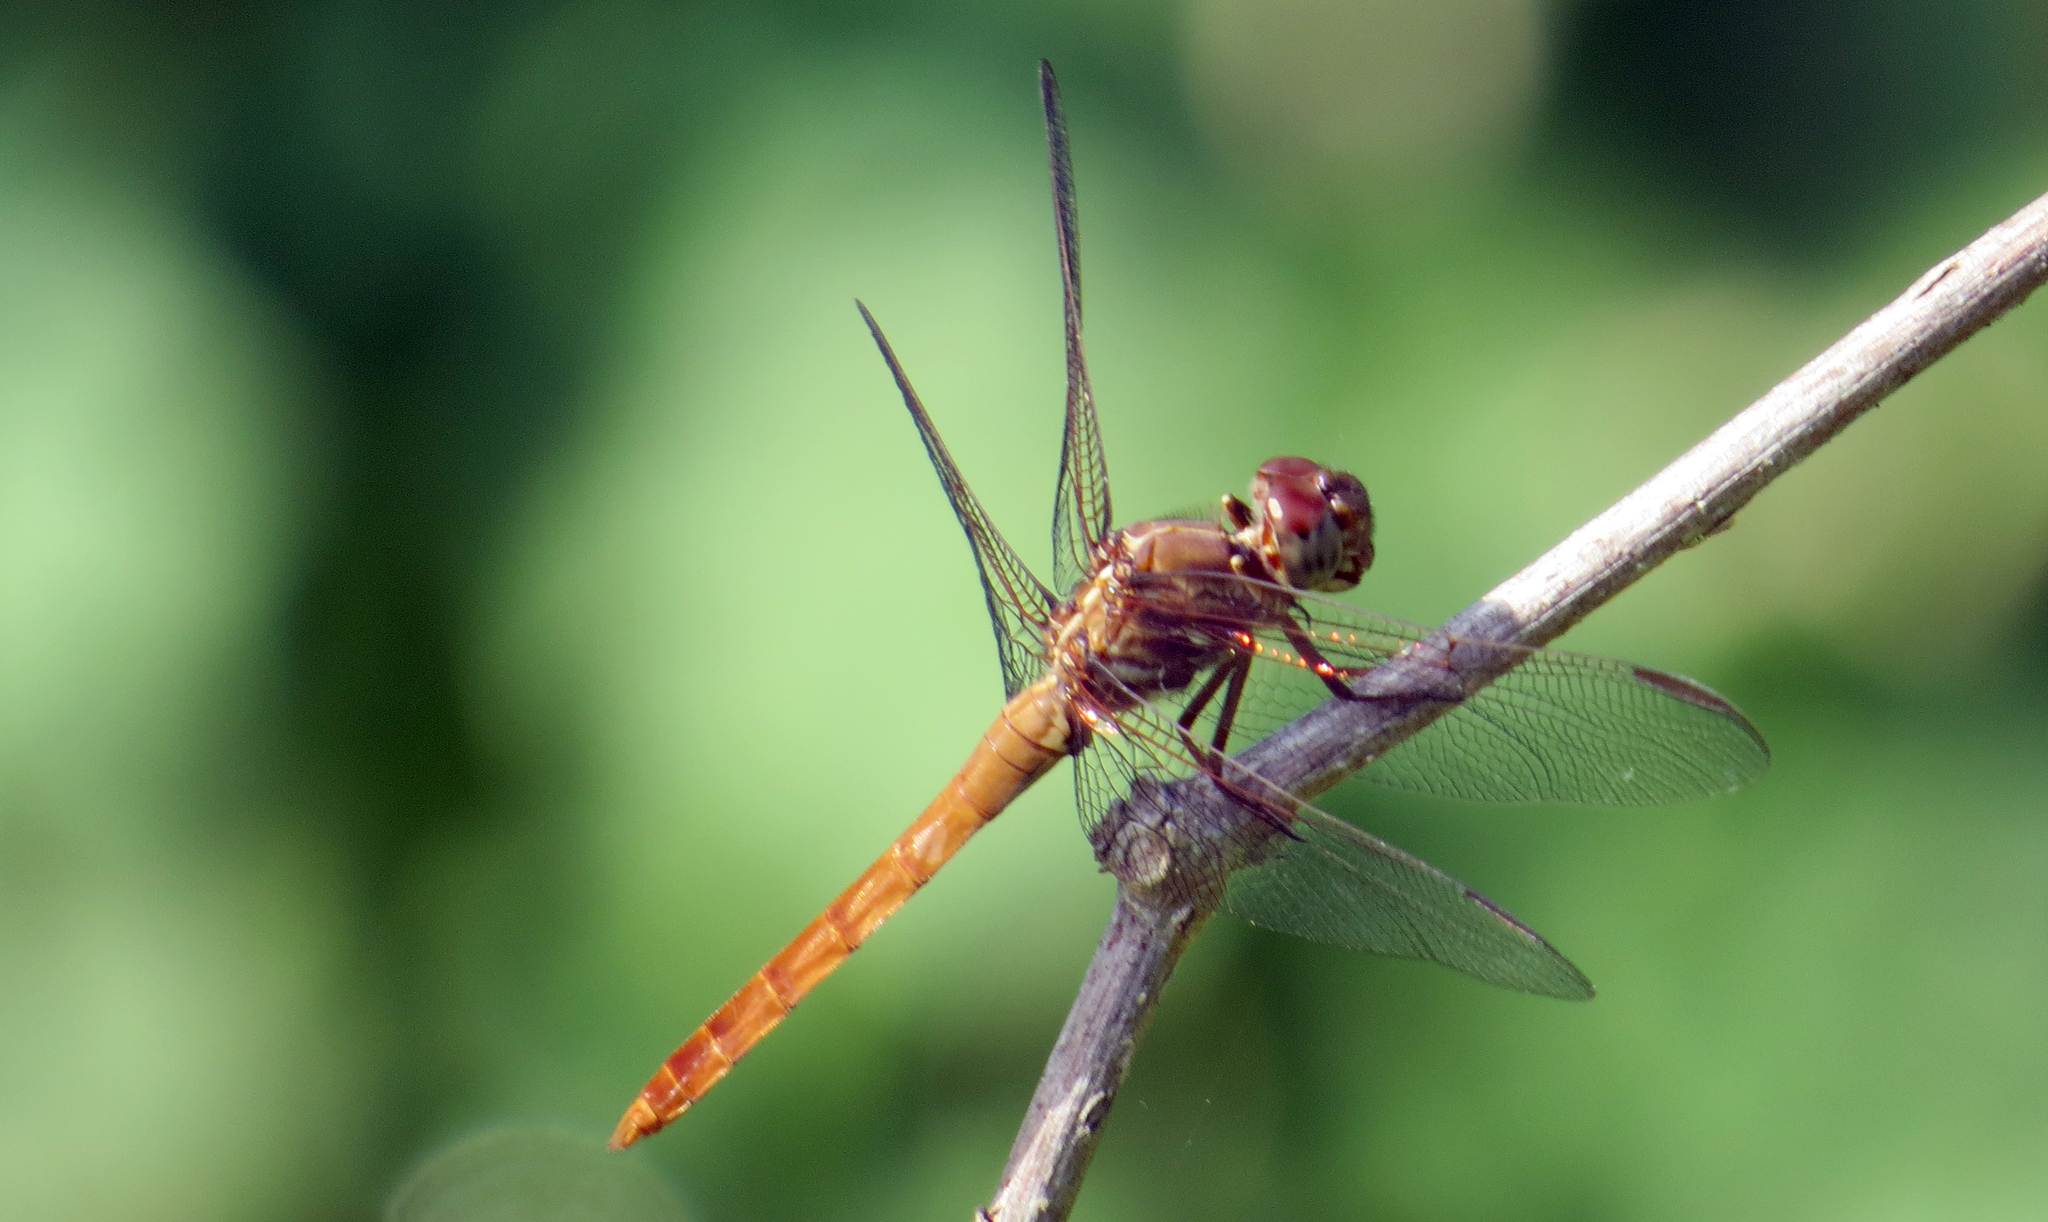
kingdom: Animalia
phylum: Arthropoda
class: Insecta
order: Odonata
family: Libellulidae
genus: Orthemis
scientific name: Orthemis ferruginea
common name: Roseate skimmer
